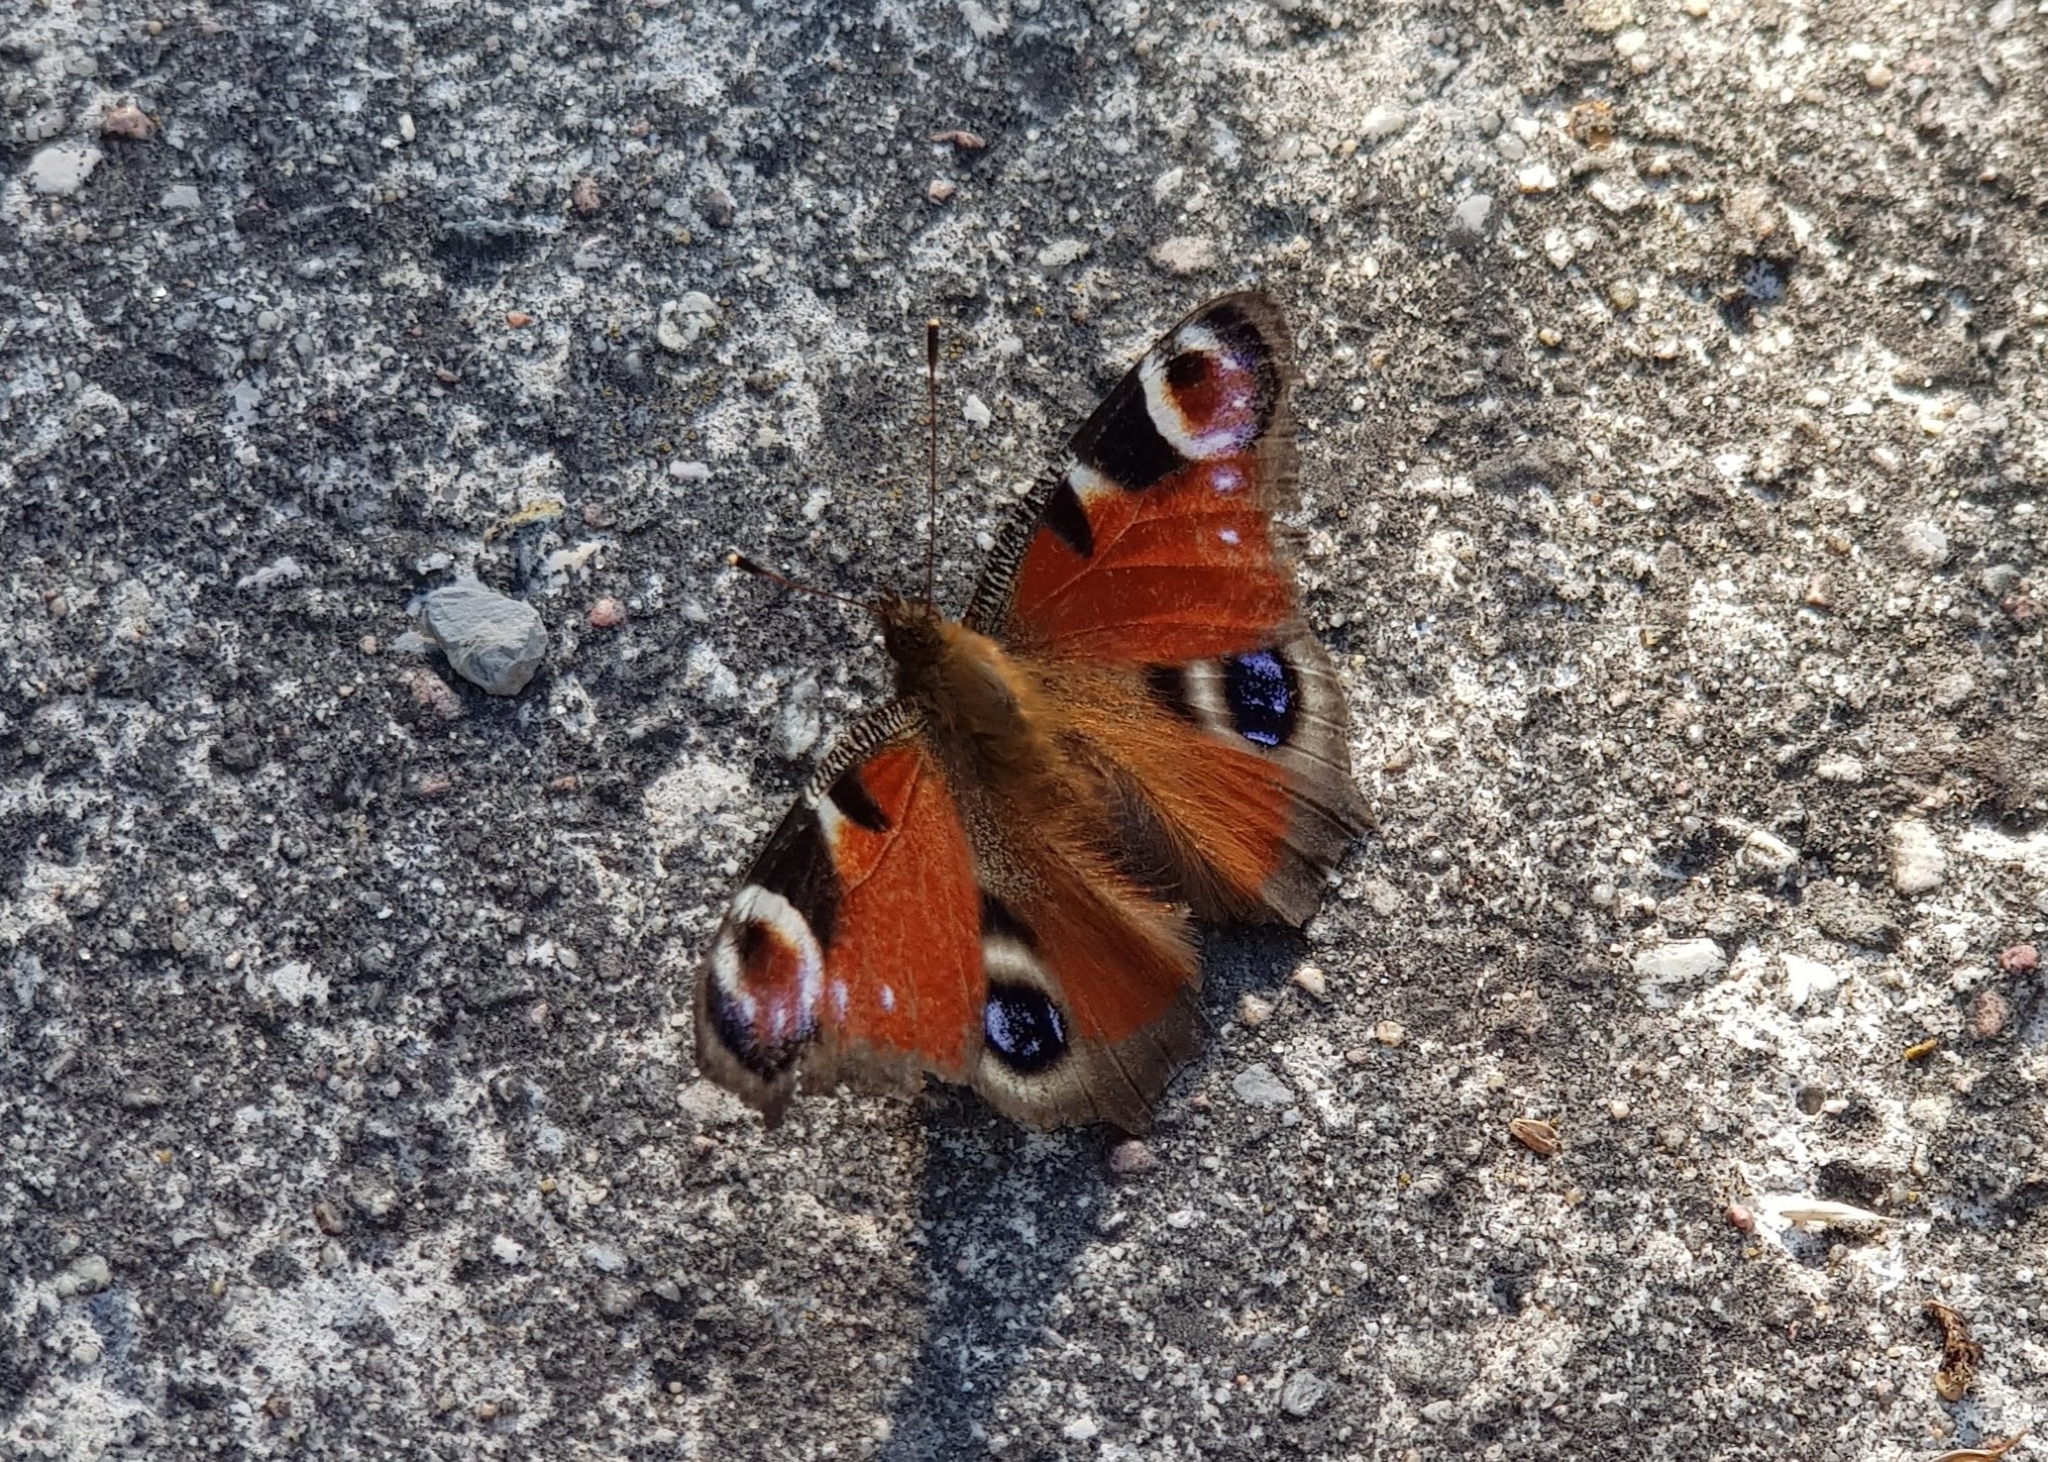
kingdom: Animalia
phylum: Arthropoda
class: Insecta
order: Lepidoptera
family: Nymphalidae
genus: Aglais
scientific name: Aglais io
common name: Peacock
